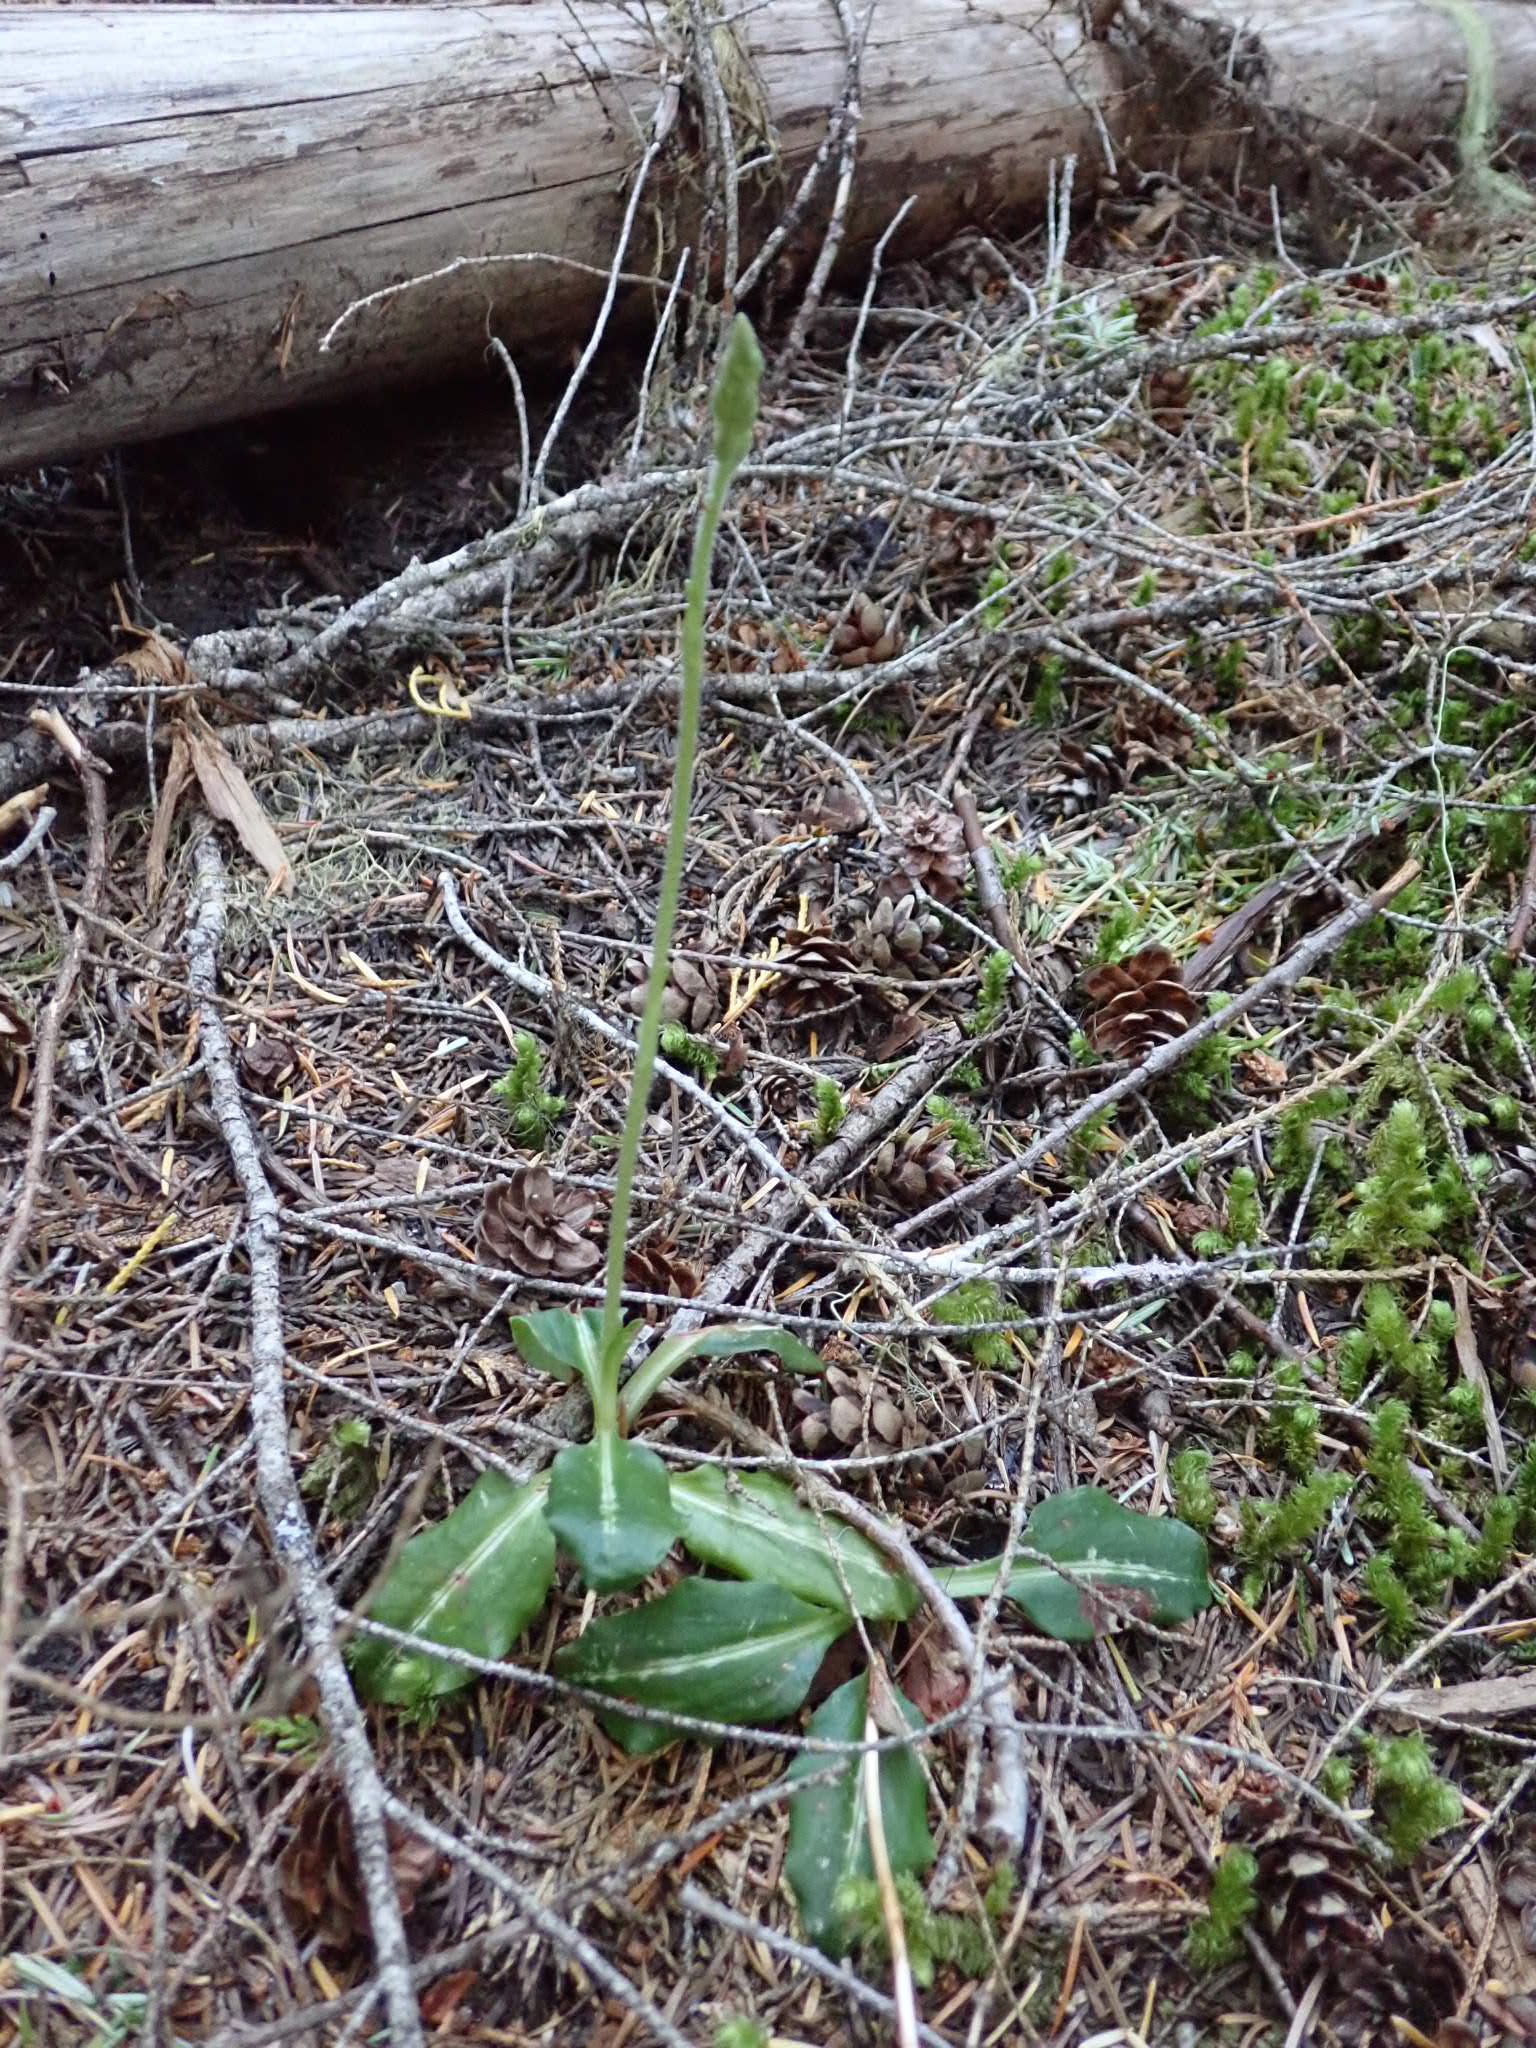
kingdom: Plantae
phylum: Tracheophyta
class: Liliopsida
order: Asparagales
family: Orchidaceae
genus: Goodyera
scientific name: Goodyera oblongifolia
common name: Giant rattlesnake-plantain
